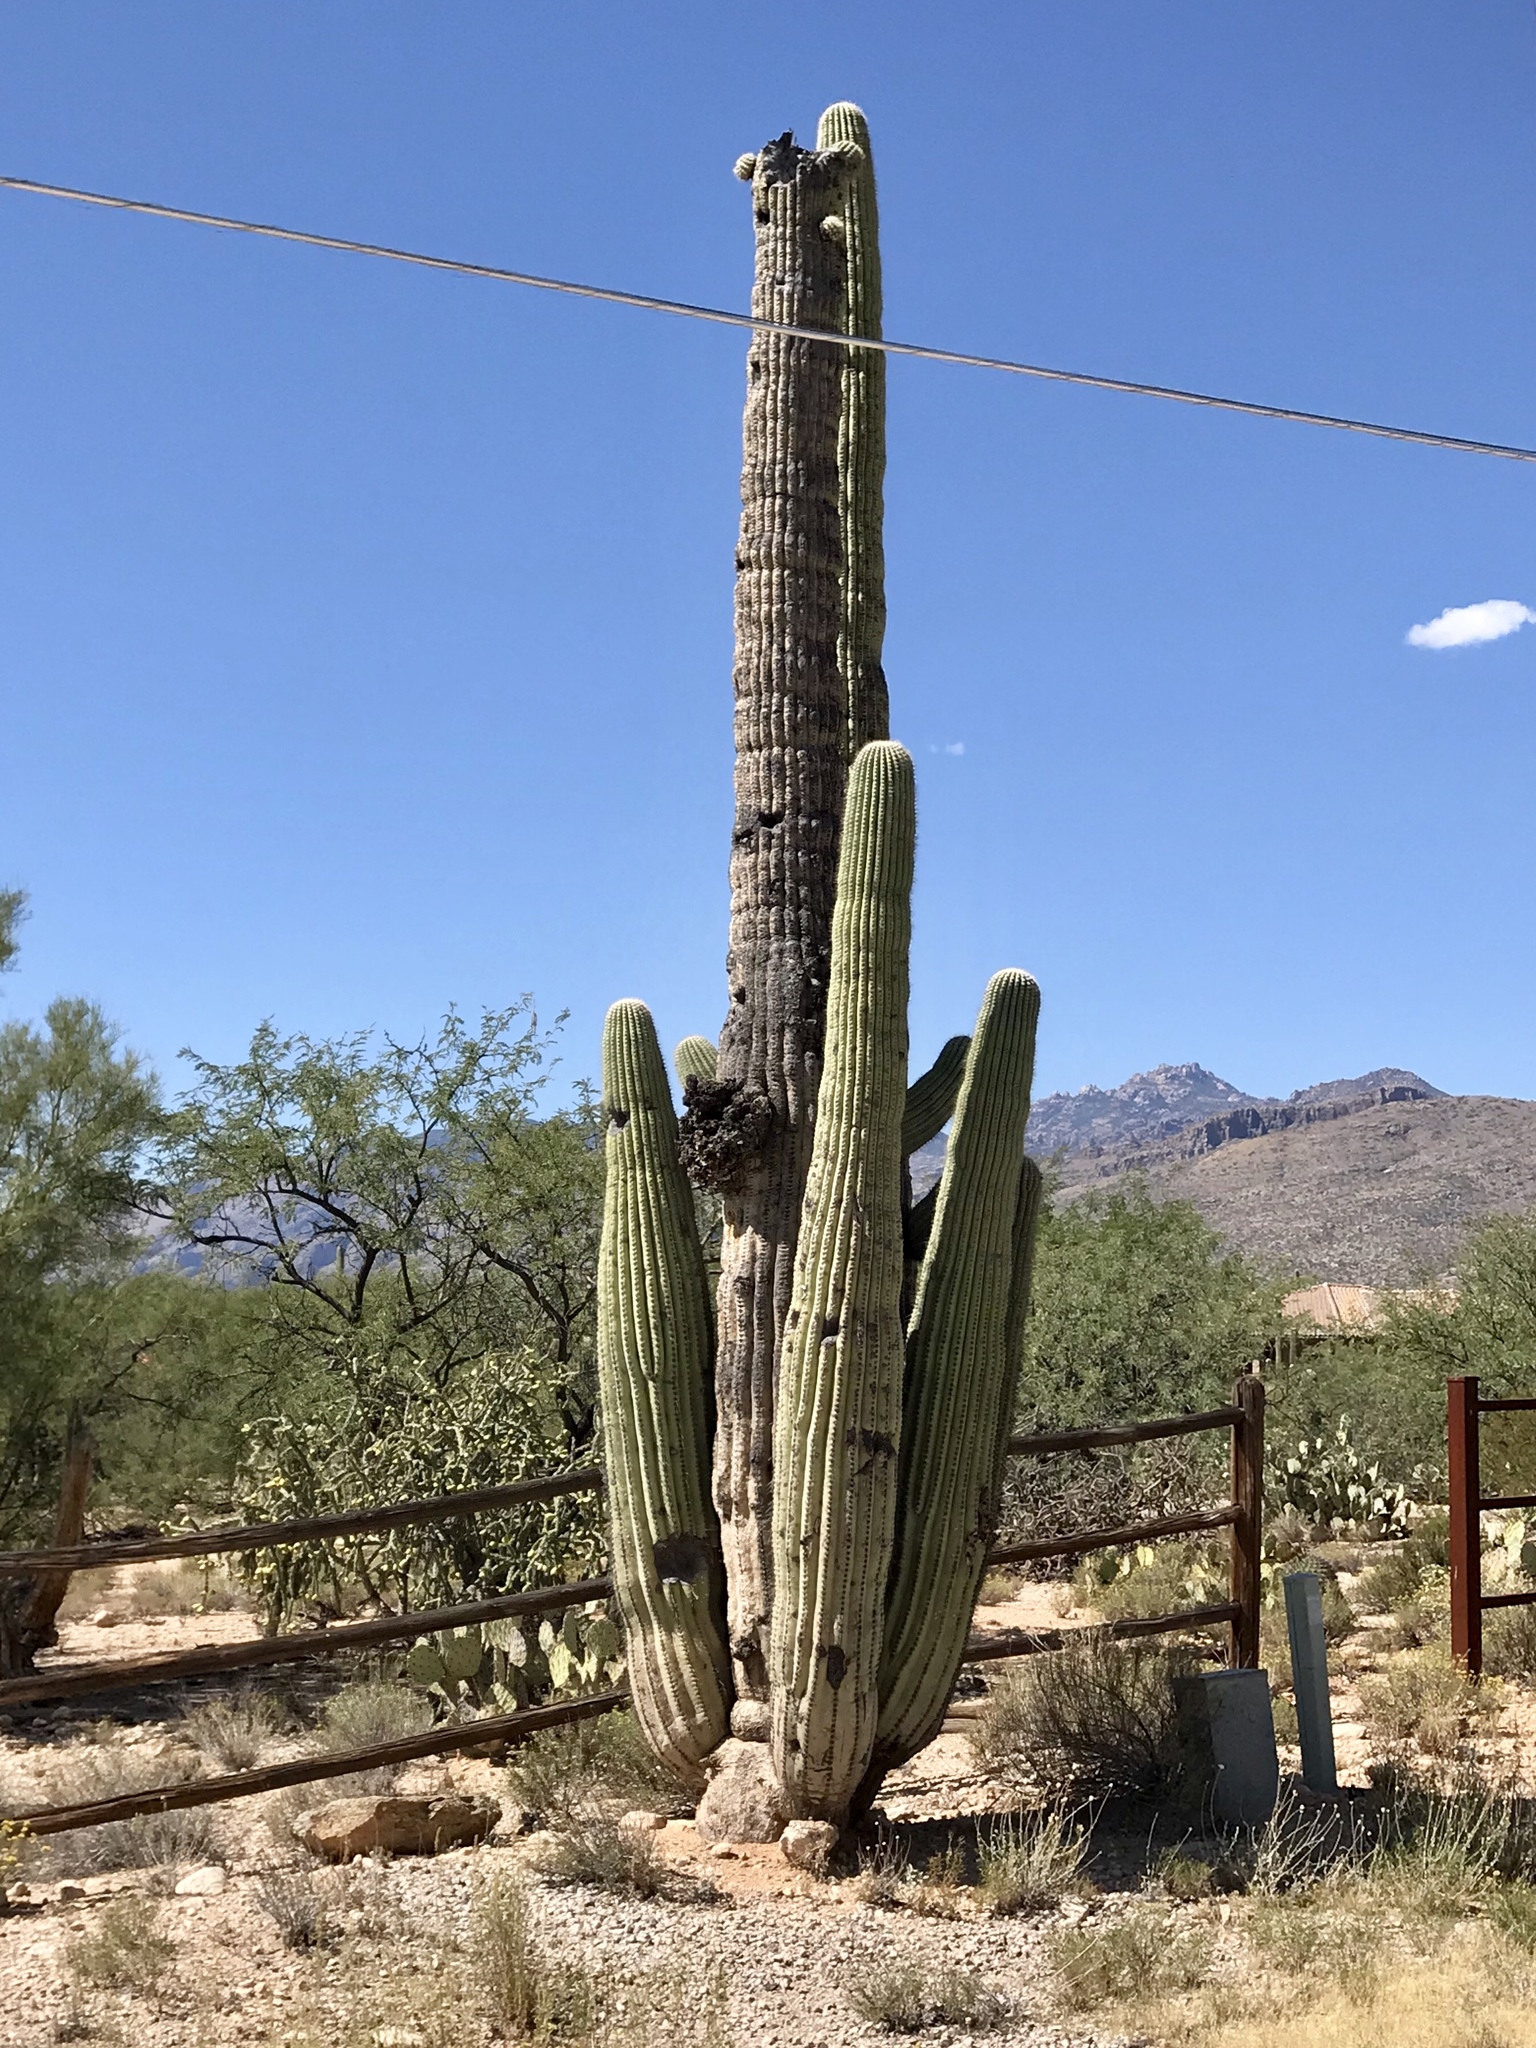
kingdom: Plantae
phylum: Tracheophyta
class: Magnoliopsida
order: Caryophyllales
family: Cactaceae
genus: Carnegiea
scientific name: Carnegiea gigantea
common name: Saguaro
